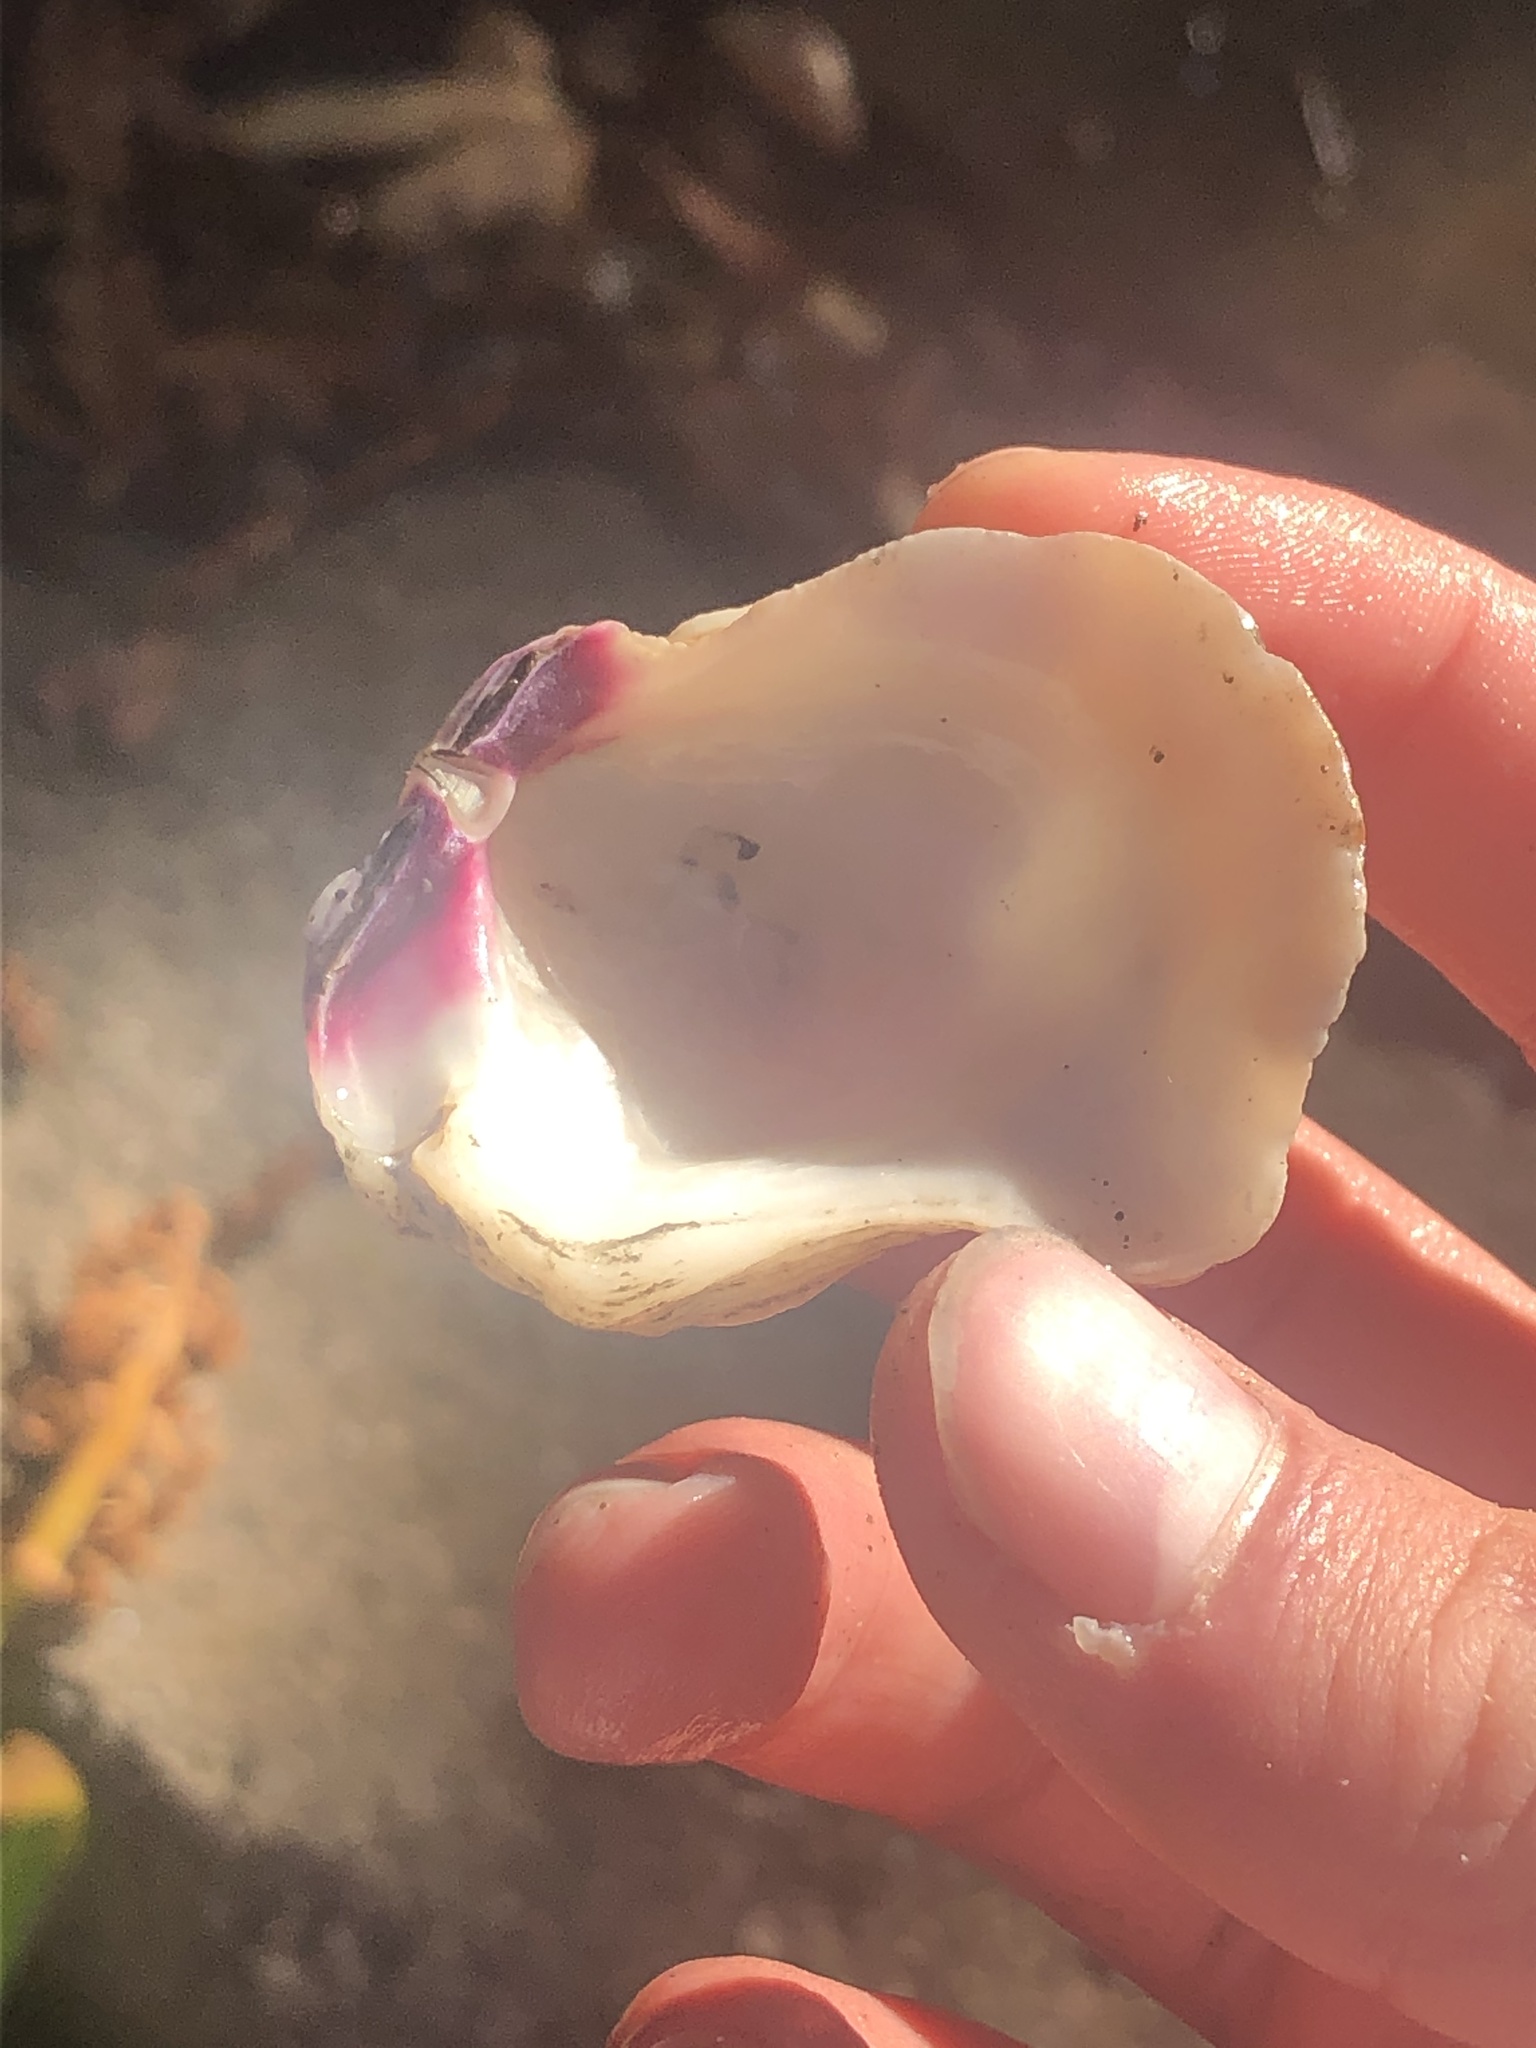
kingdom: Animalia
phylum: Mollusca
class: Bivalvia
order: Pectinida
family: Pectinidae
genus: Crassadoma
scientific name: Crassadoma gigantea
